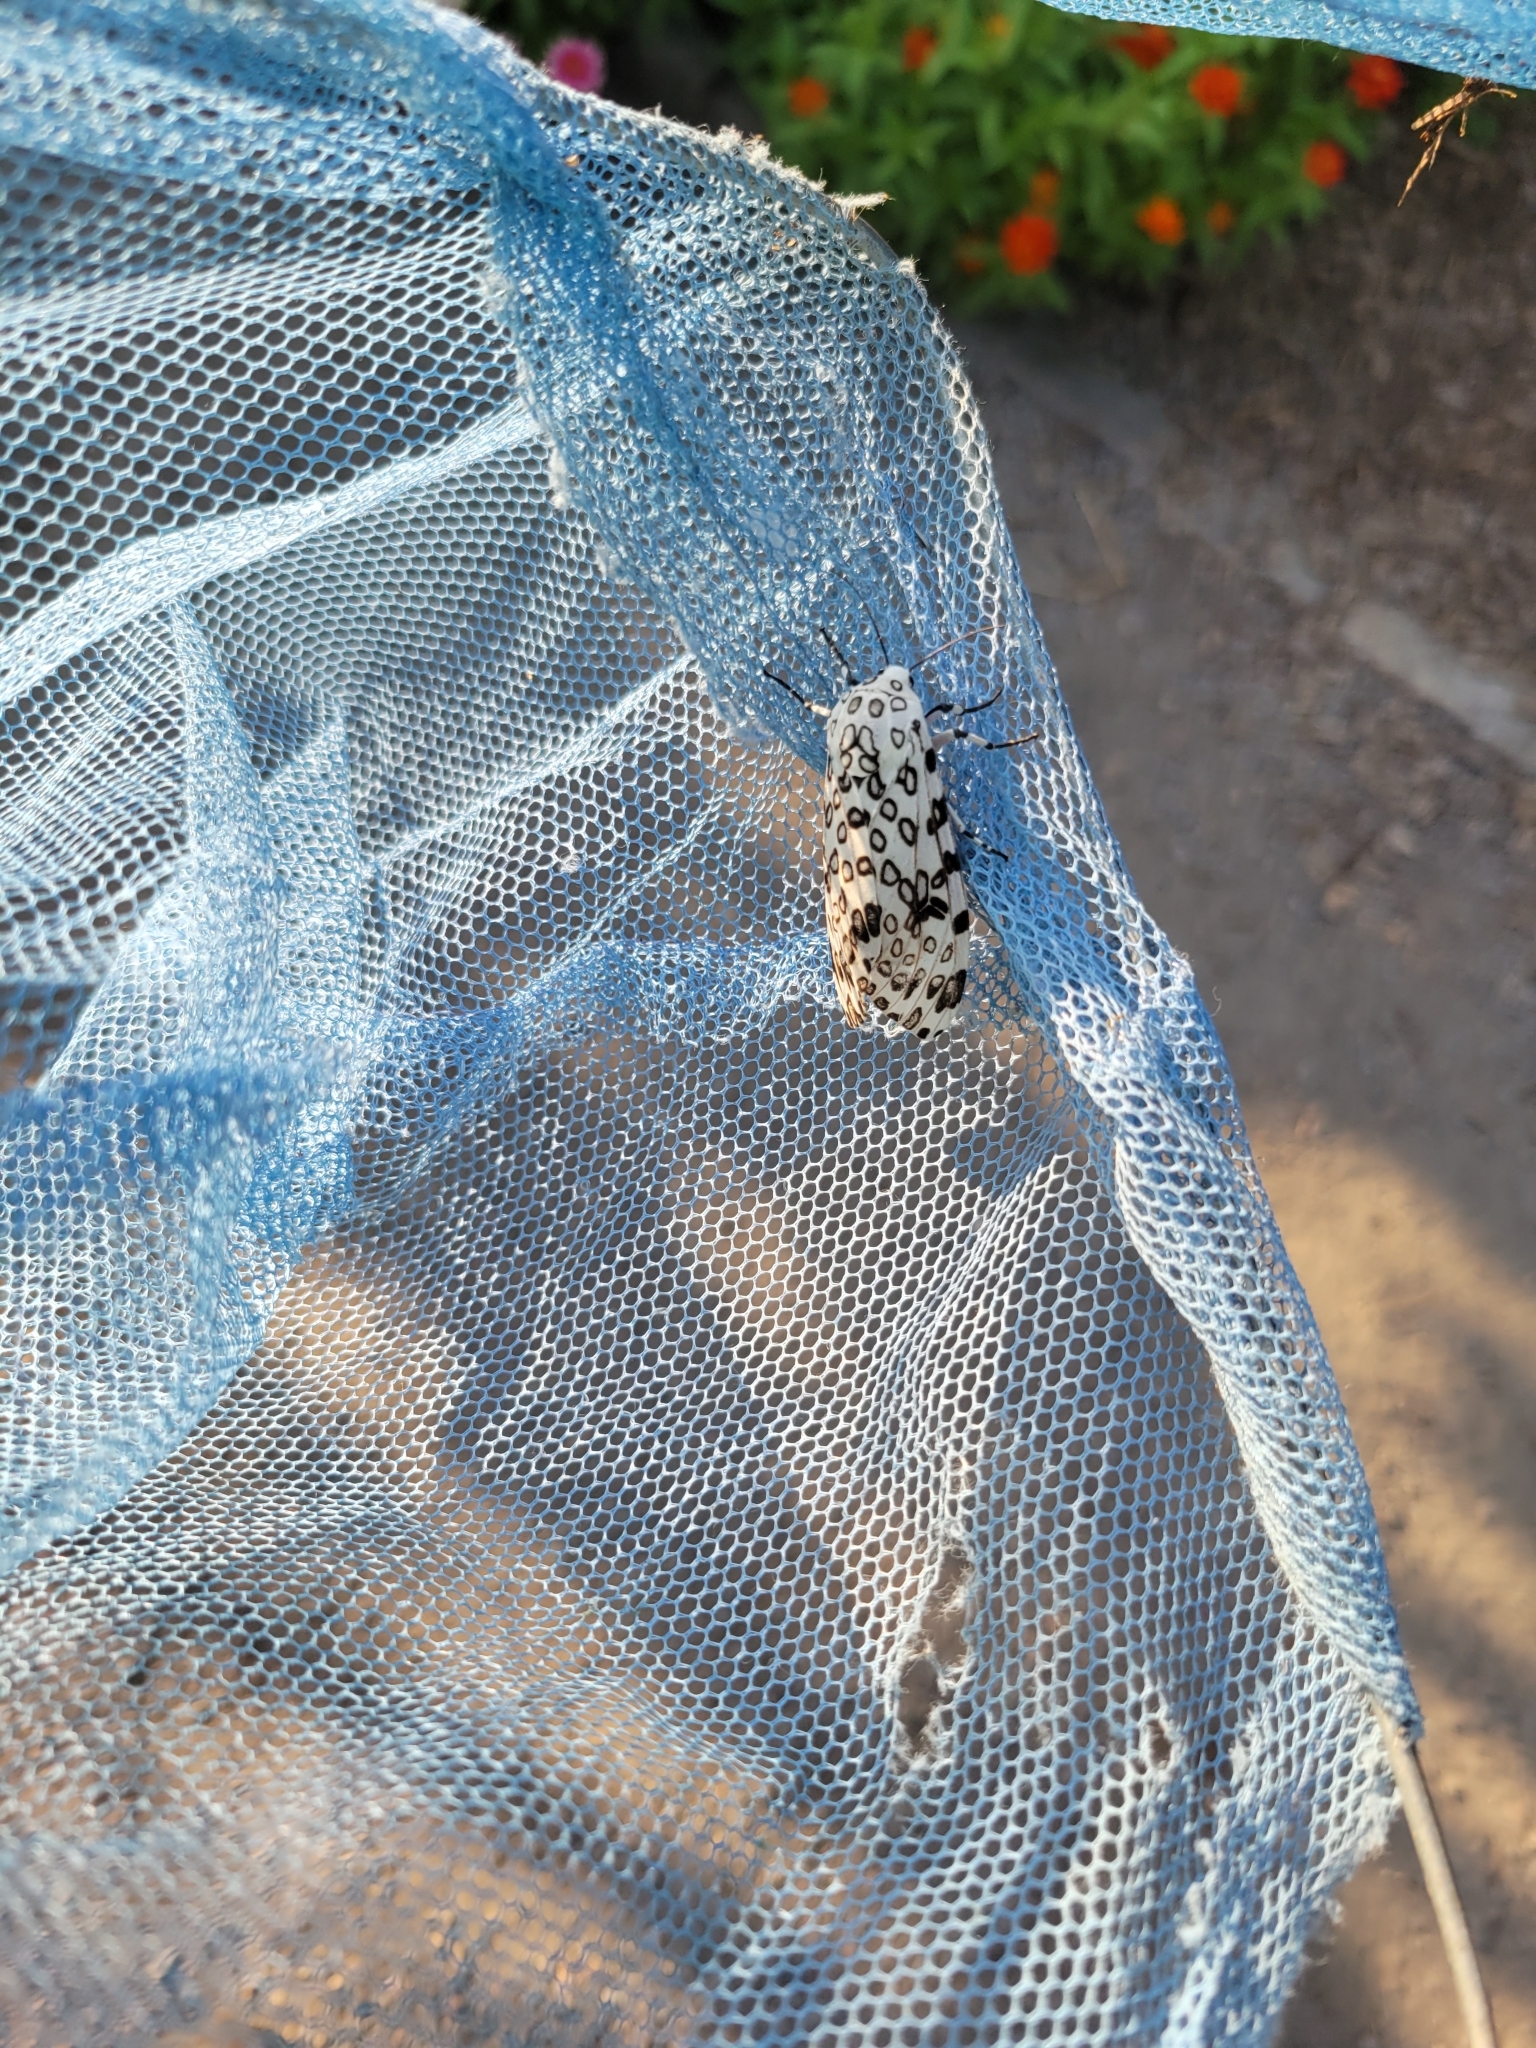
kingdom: Animalia
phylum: Arthropoda
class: Insecta
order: Lepidoptera
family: Erebidae
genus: Hypercompe
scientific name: Hypercompe scribonia
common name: Giant leopard moth
